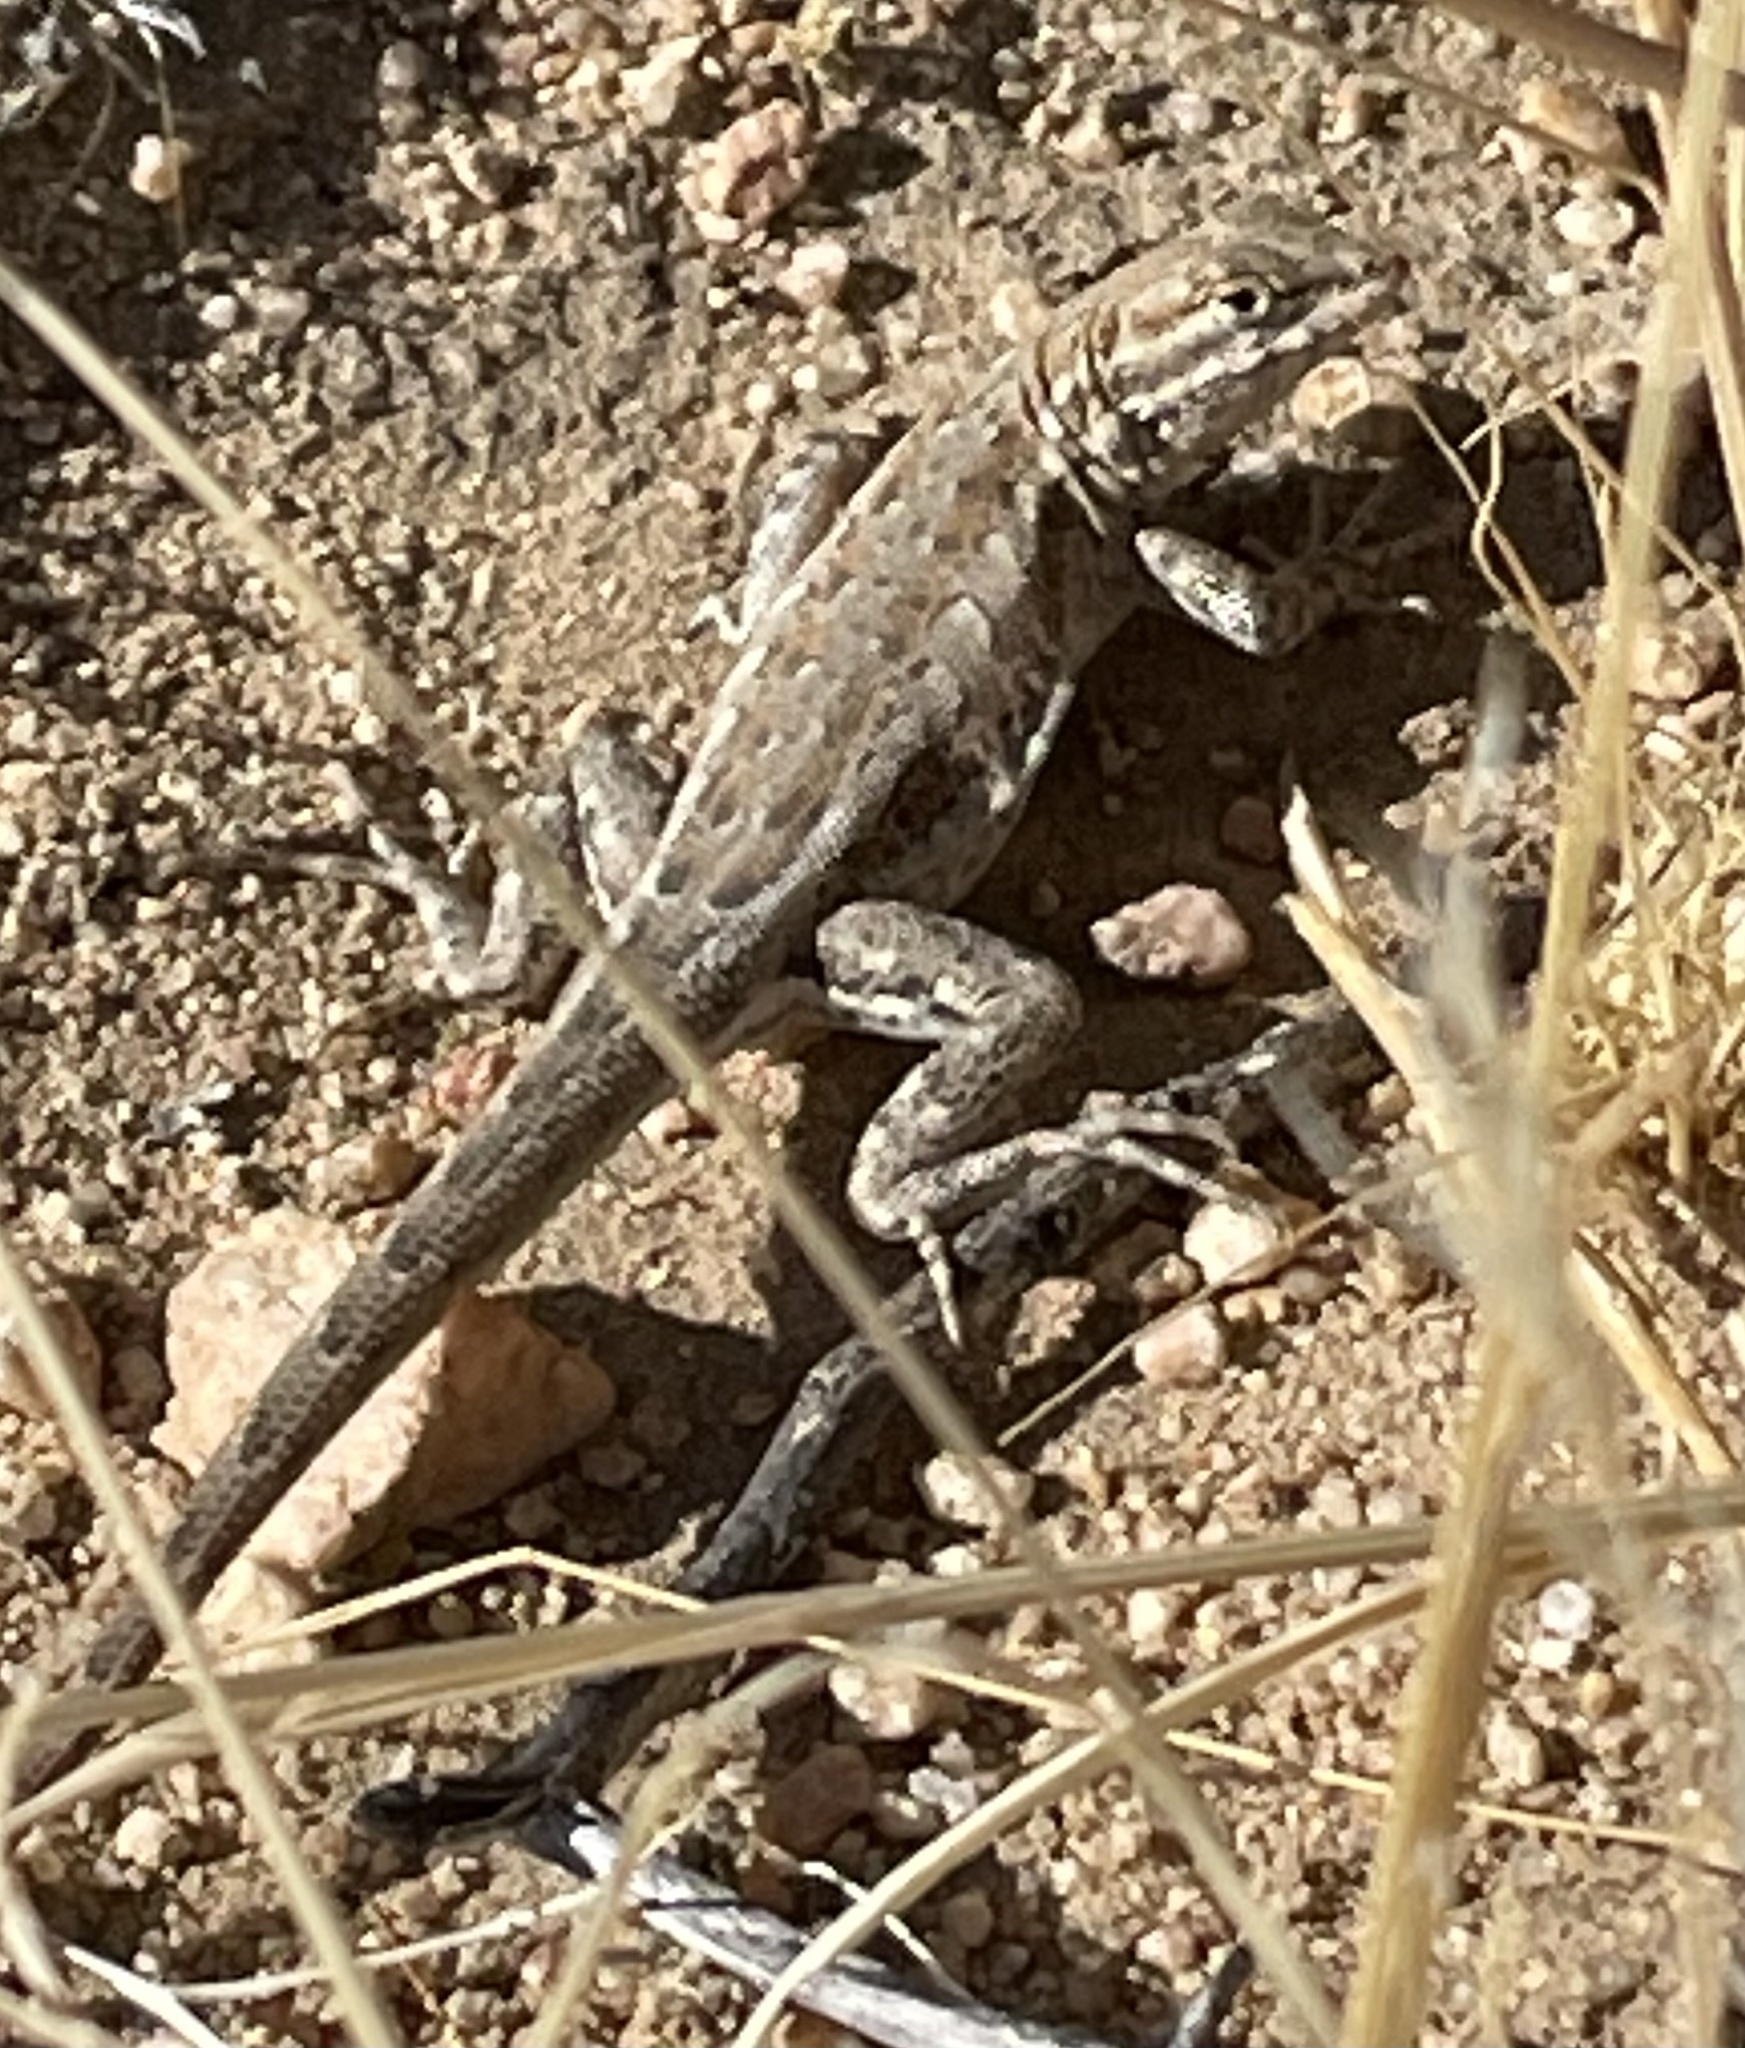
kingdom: Animalia
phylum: Chordata
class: Squamata
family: Phrynosomatidae
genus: Uta
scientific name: Uta stansburiana
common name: Side-blotched lizard
